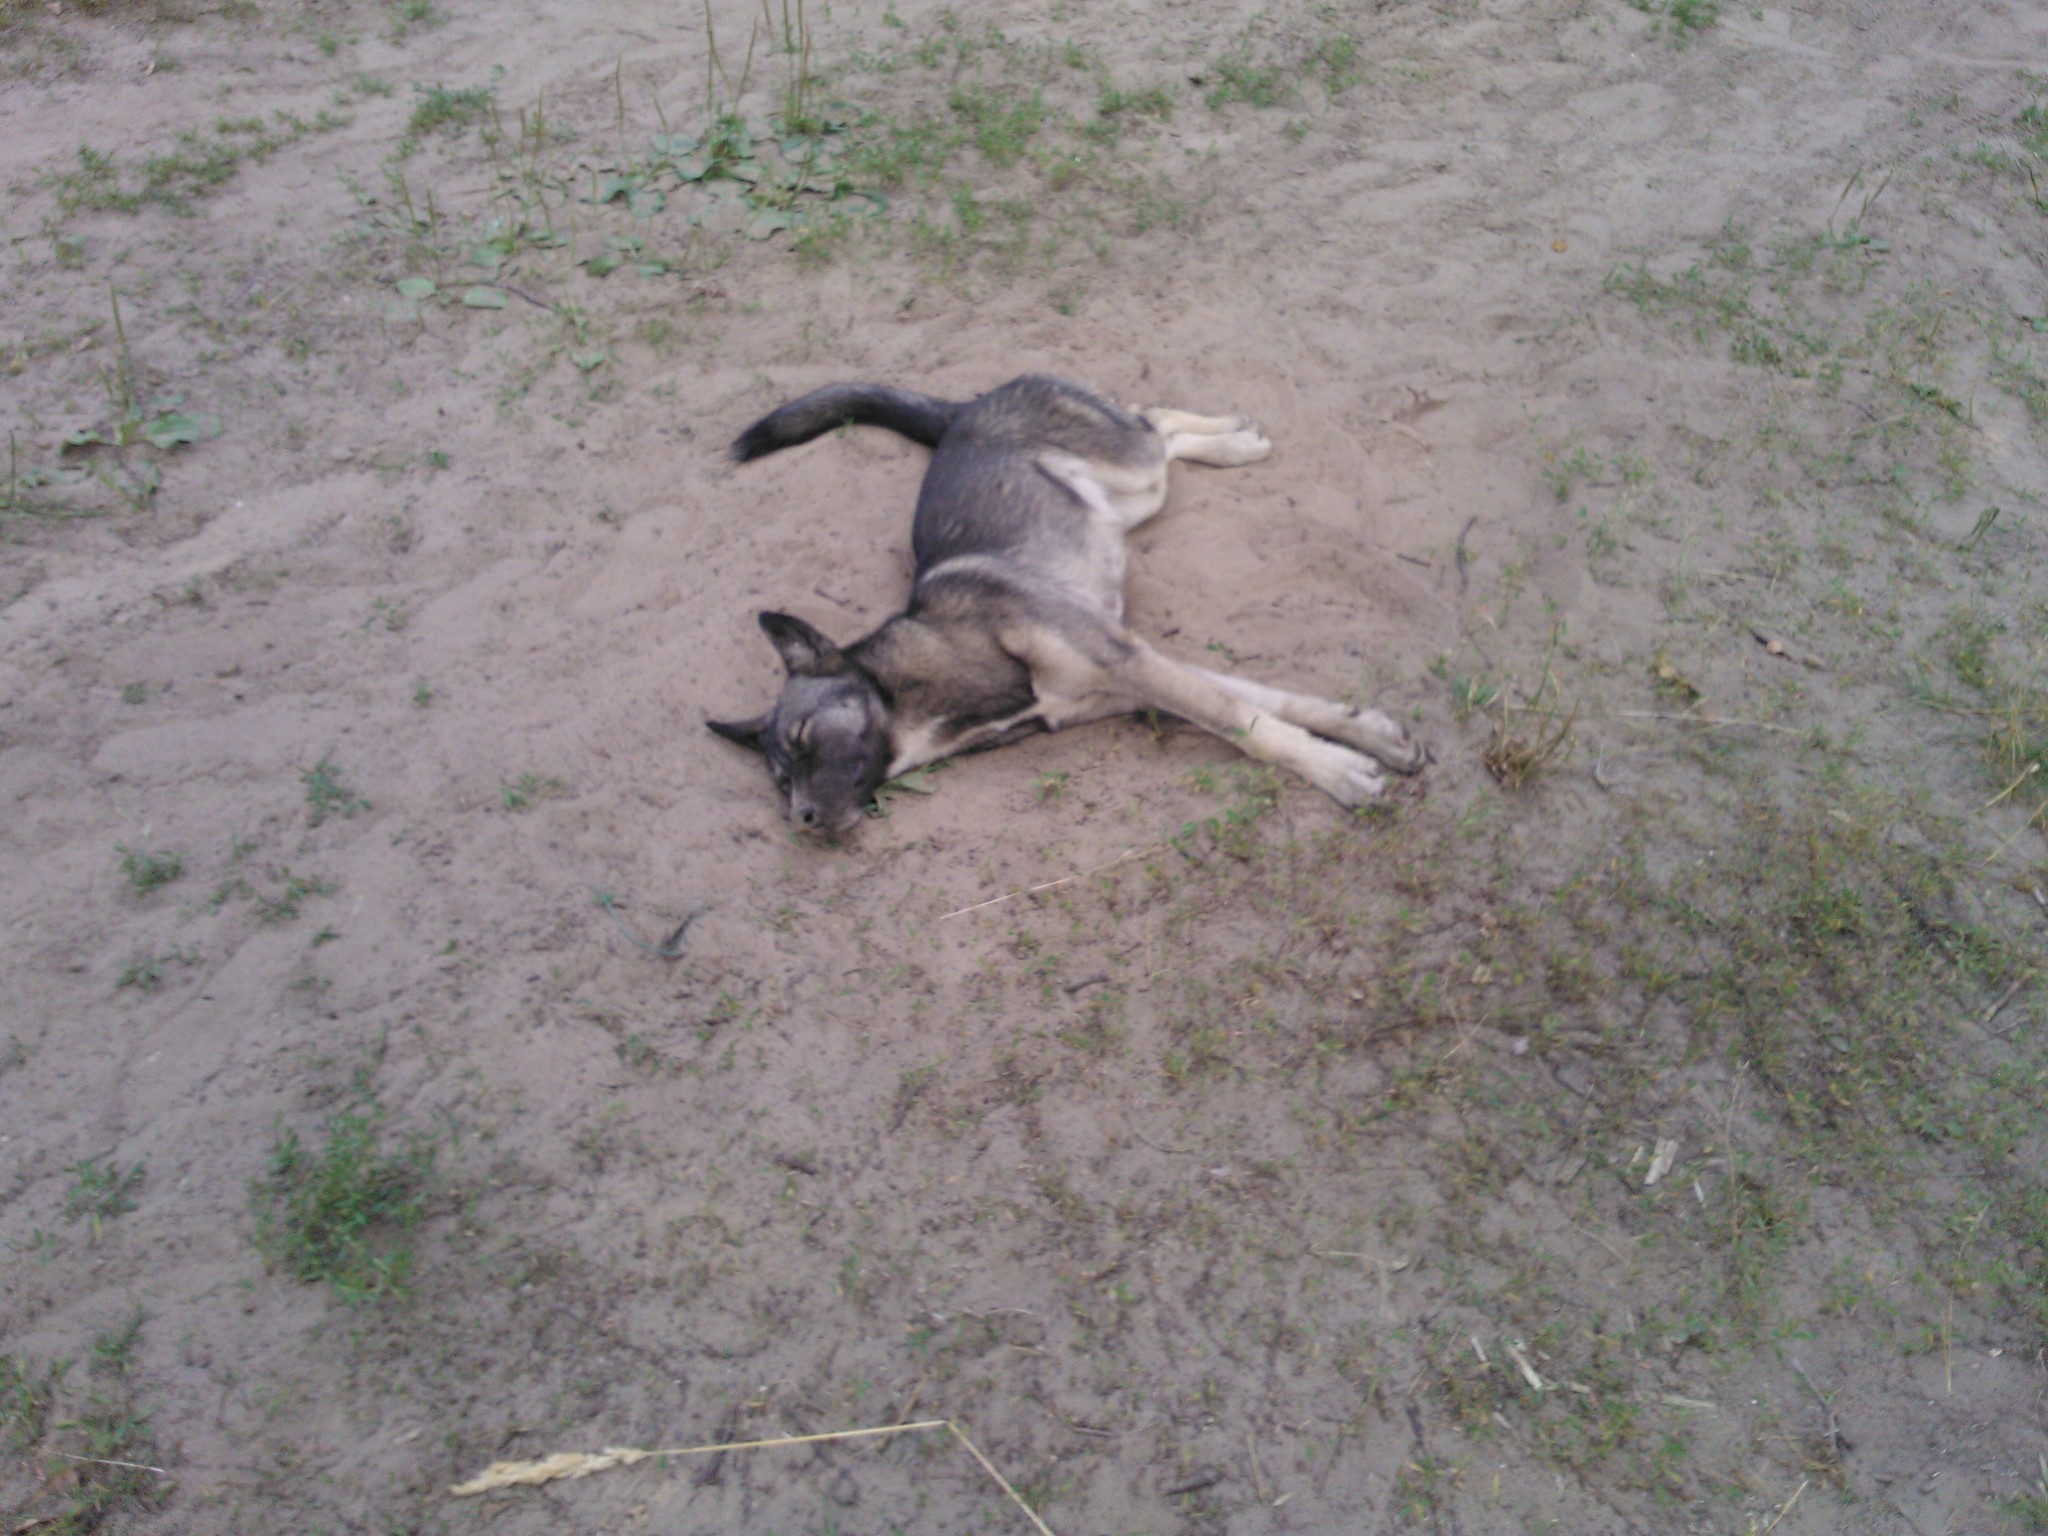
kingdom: Animalia
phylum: Chordata
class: Mammalia
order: Carnivora
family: Canidae
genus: Canis
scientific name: Canis lupus
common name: Gray wolf
